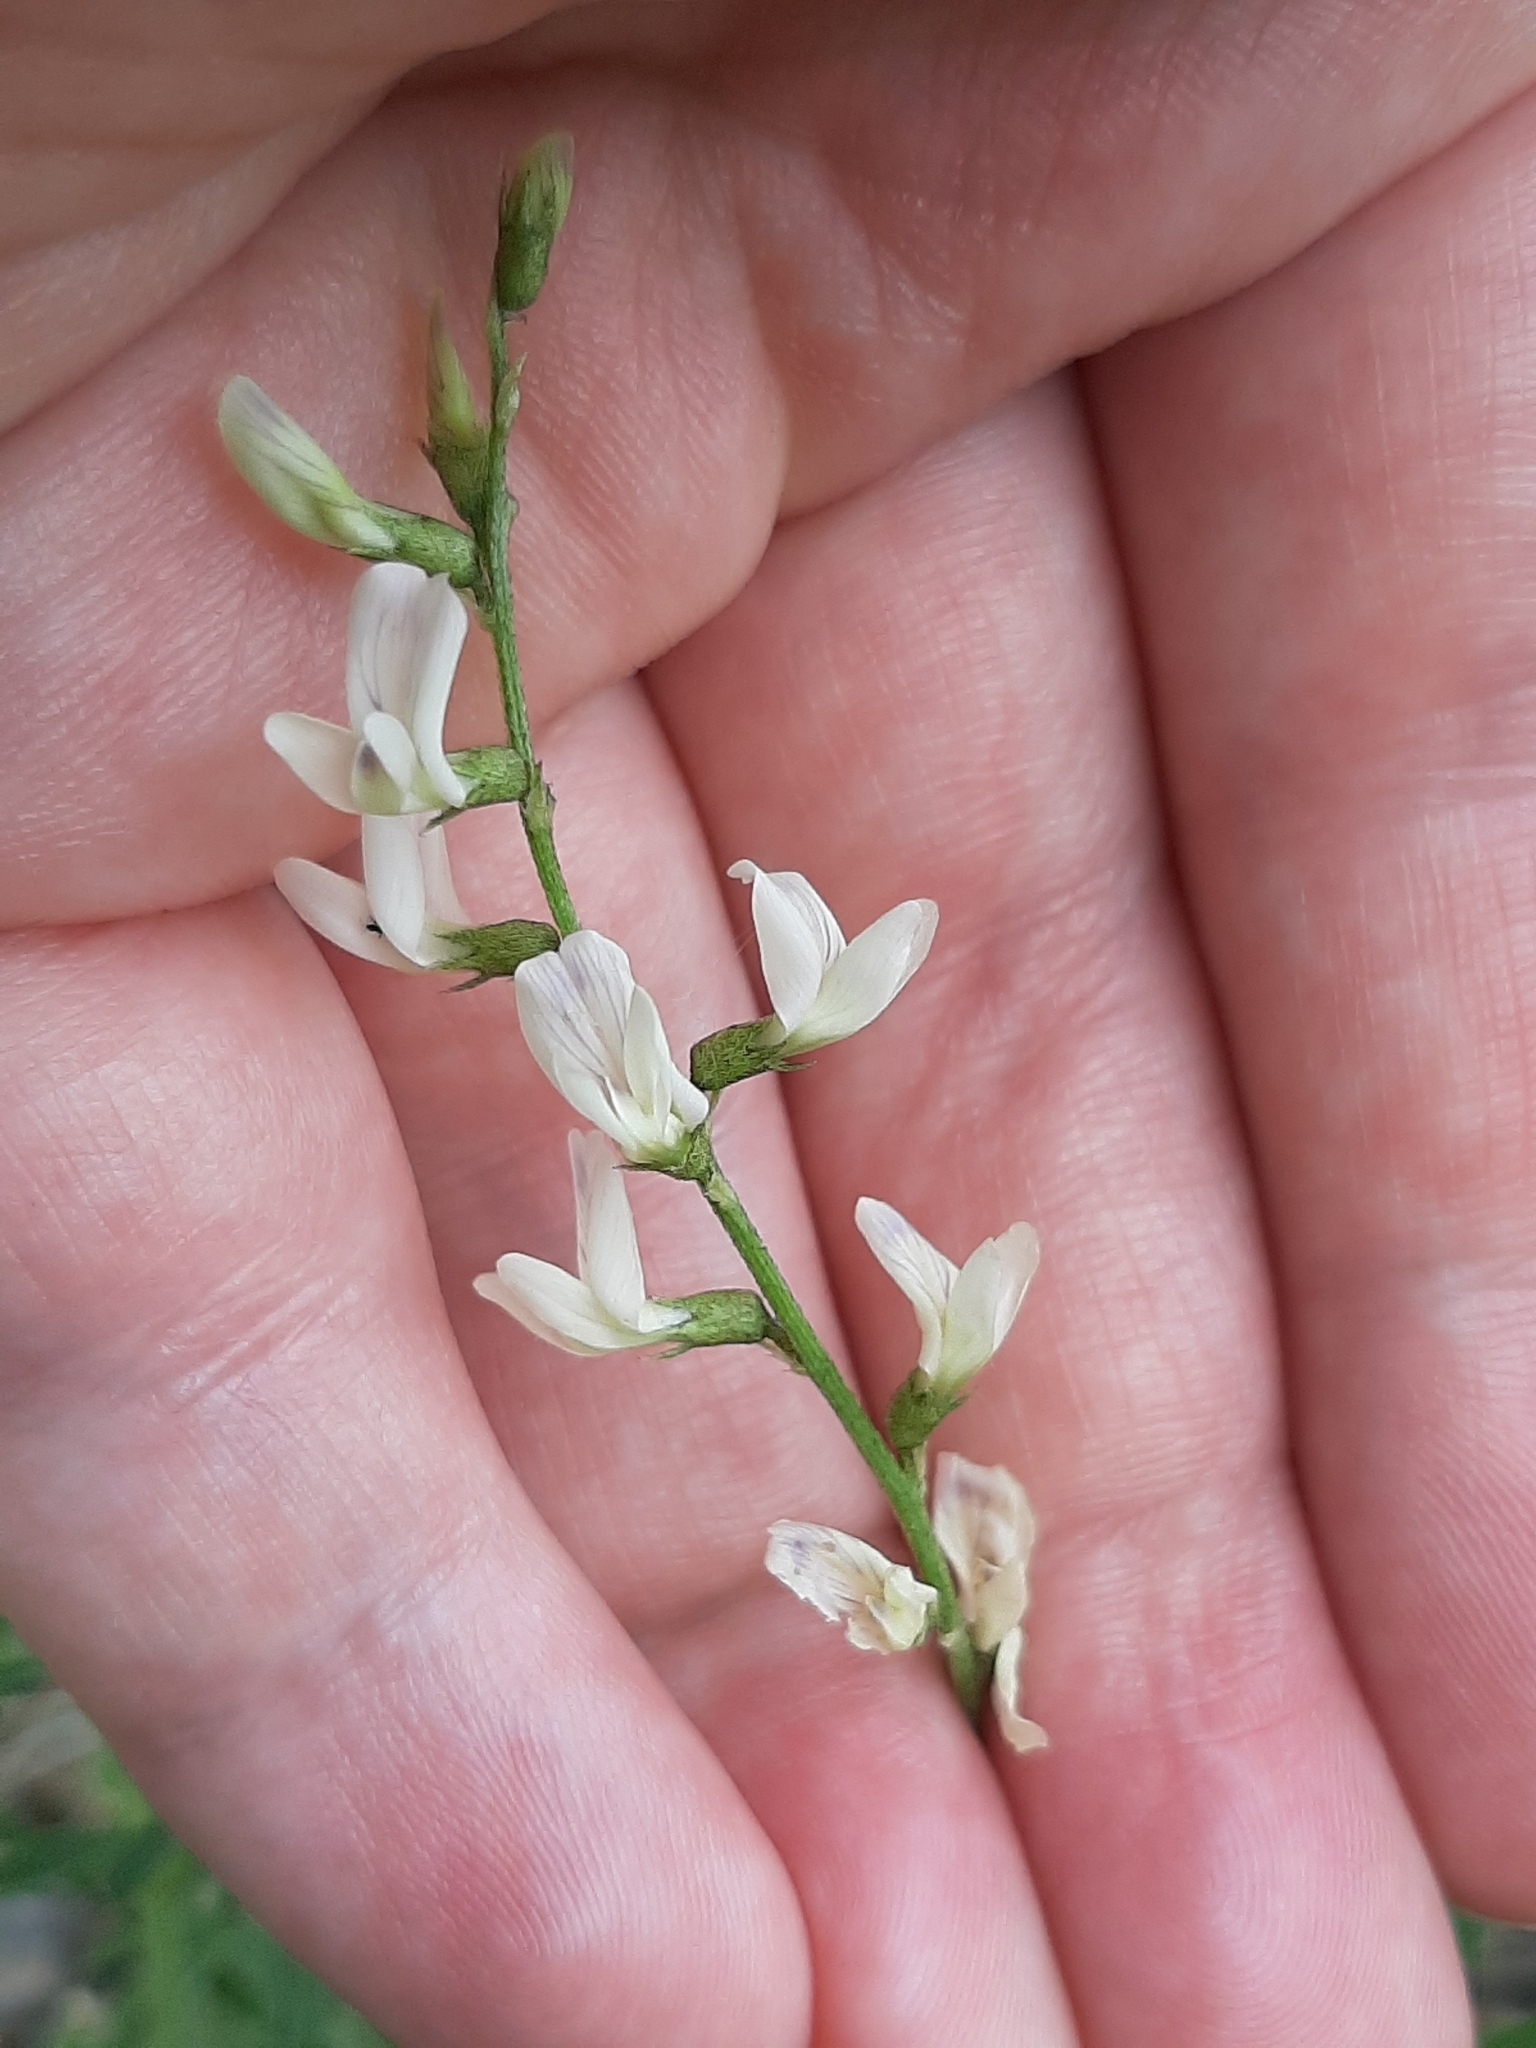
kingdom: Plantae
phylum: Tracheophyta
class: Magnoliopsida
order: Fabales
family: Fabaceae
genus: Astragalus
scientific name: Astragalus tenellus
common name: Pulse milk-vetch
